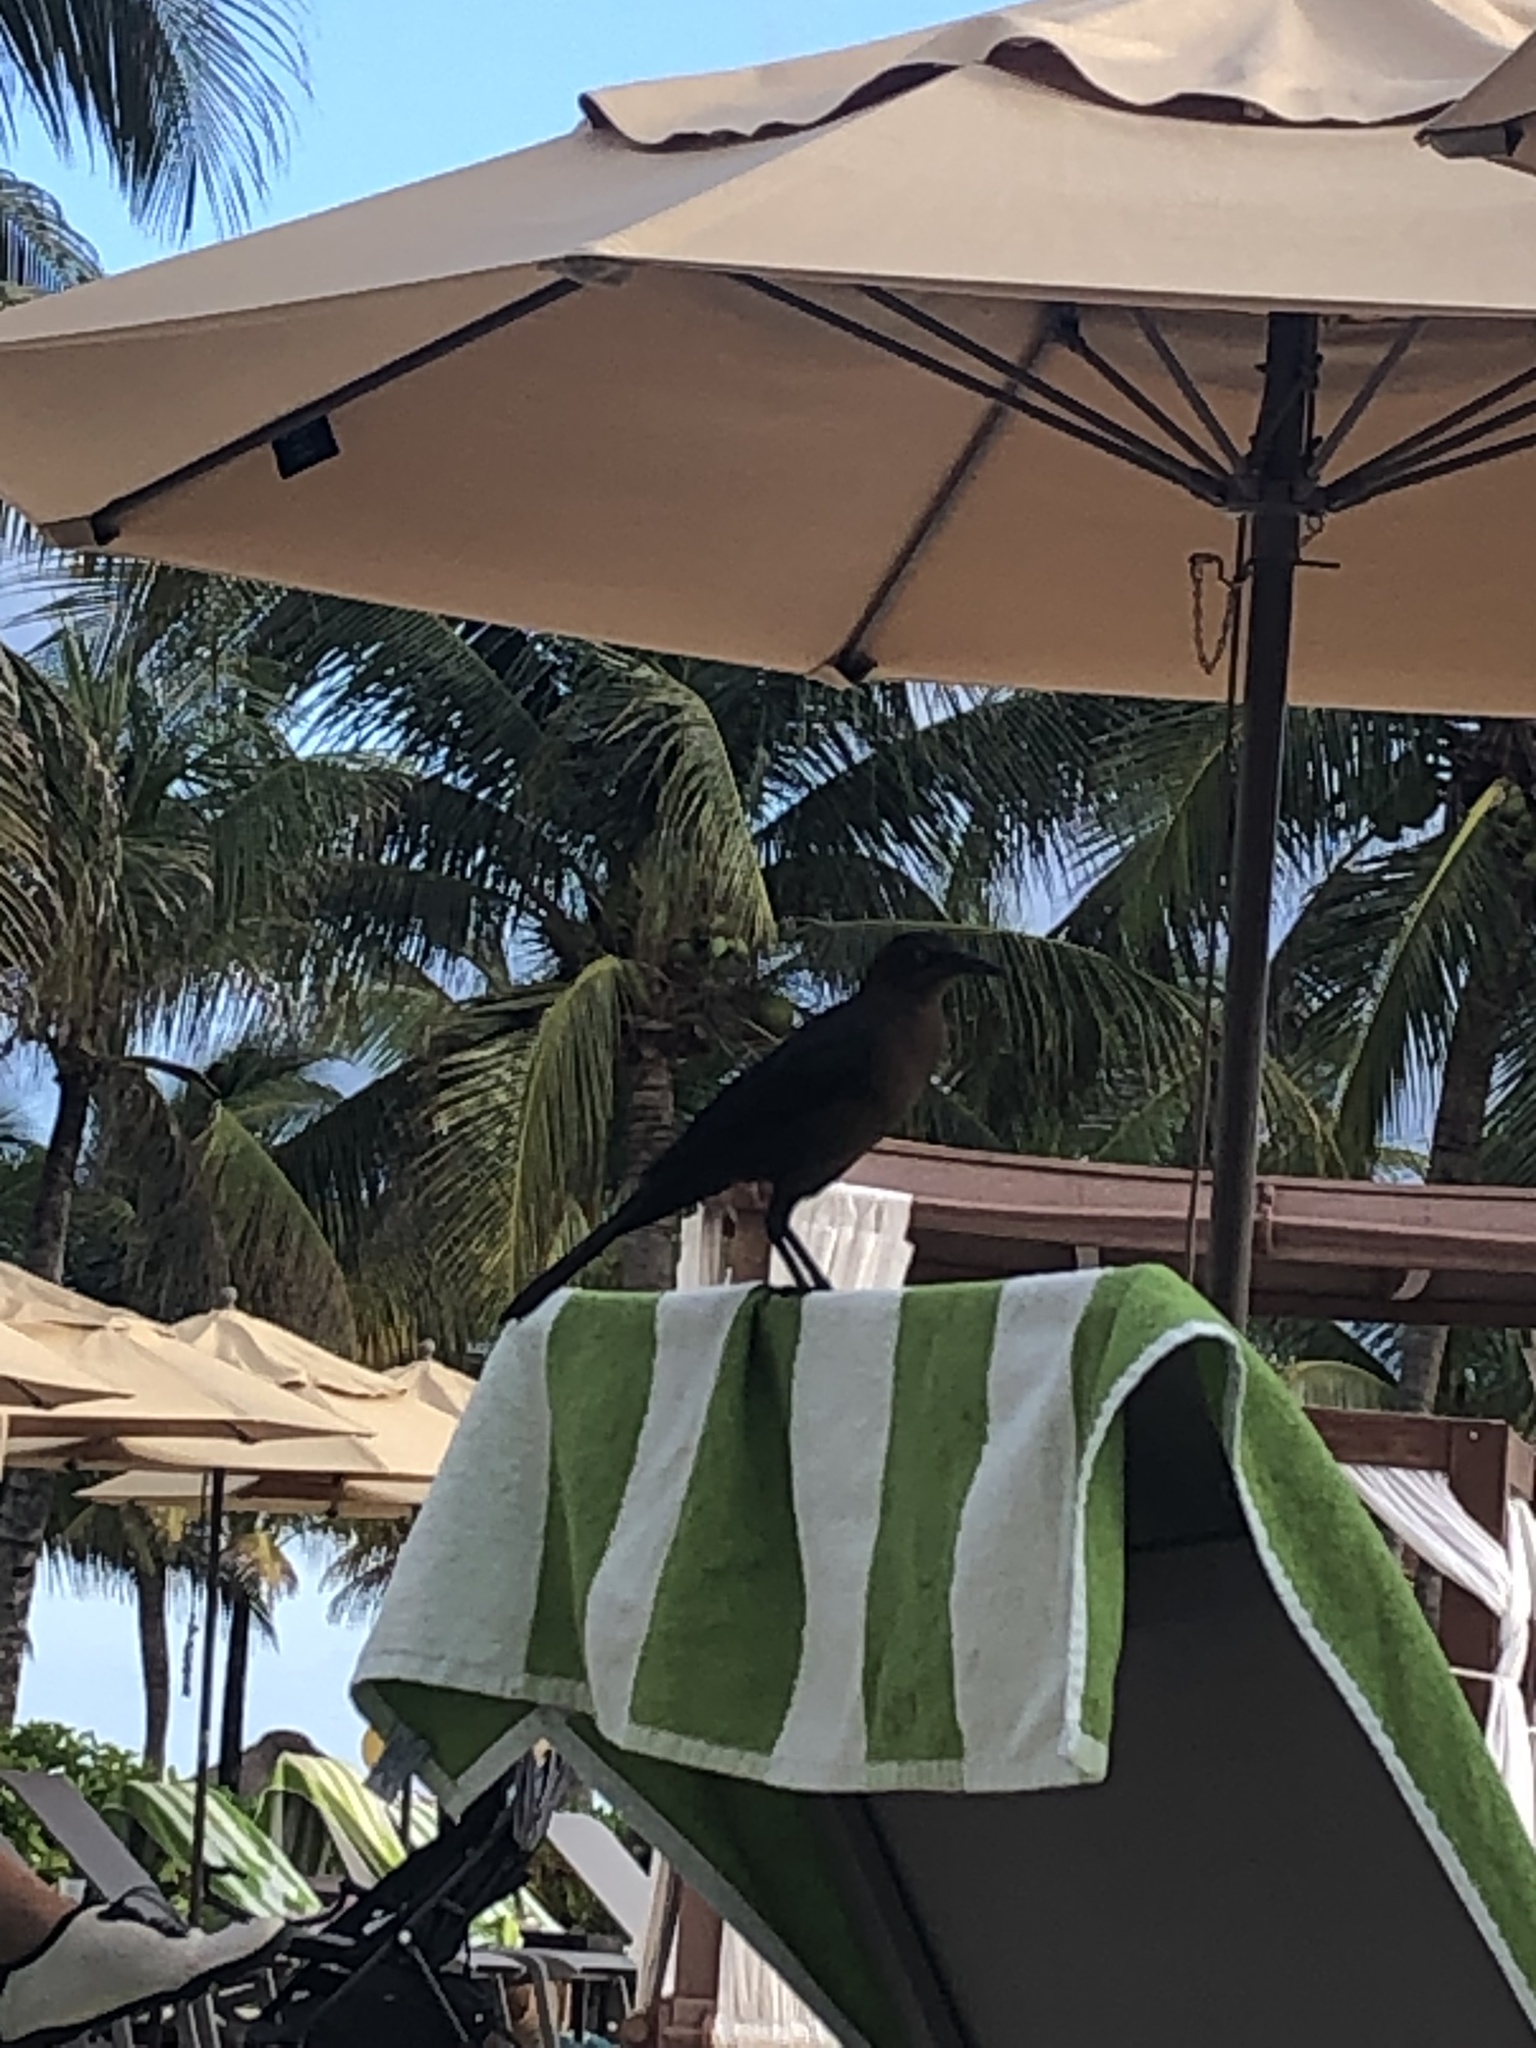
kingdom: Animalia
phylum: Chordata
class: Aves
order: Passeriformes
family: Icteridae
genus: Quiscalus
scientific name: Quiscalus mexicanus
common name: Great-tailed grackle
